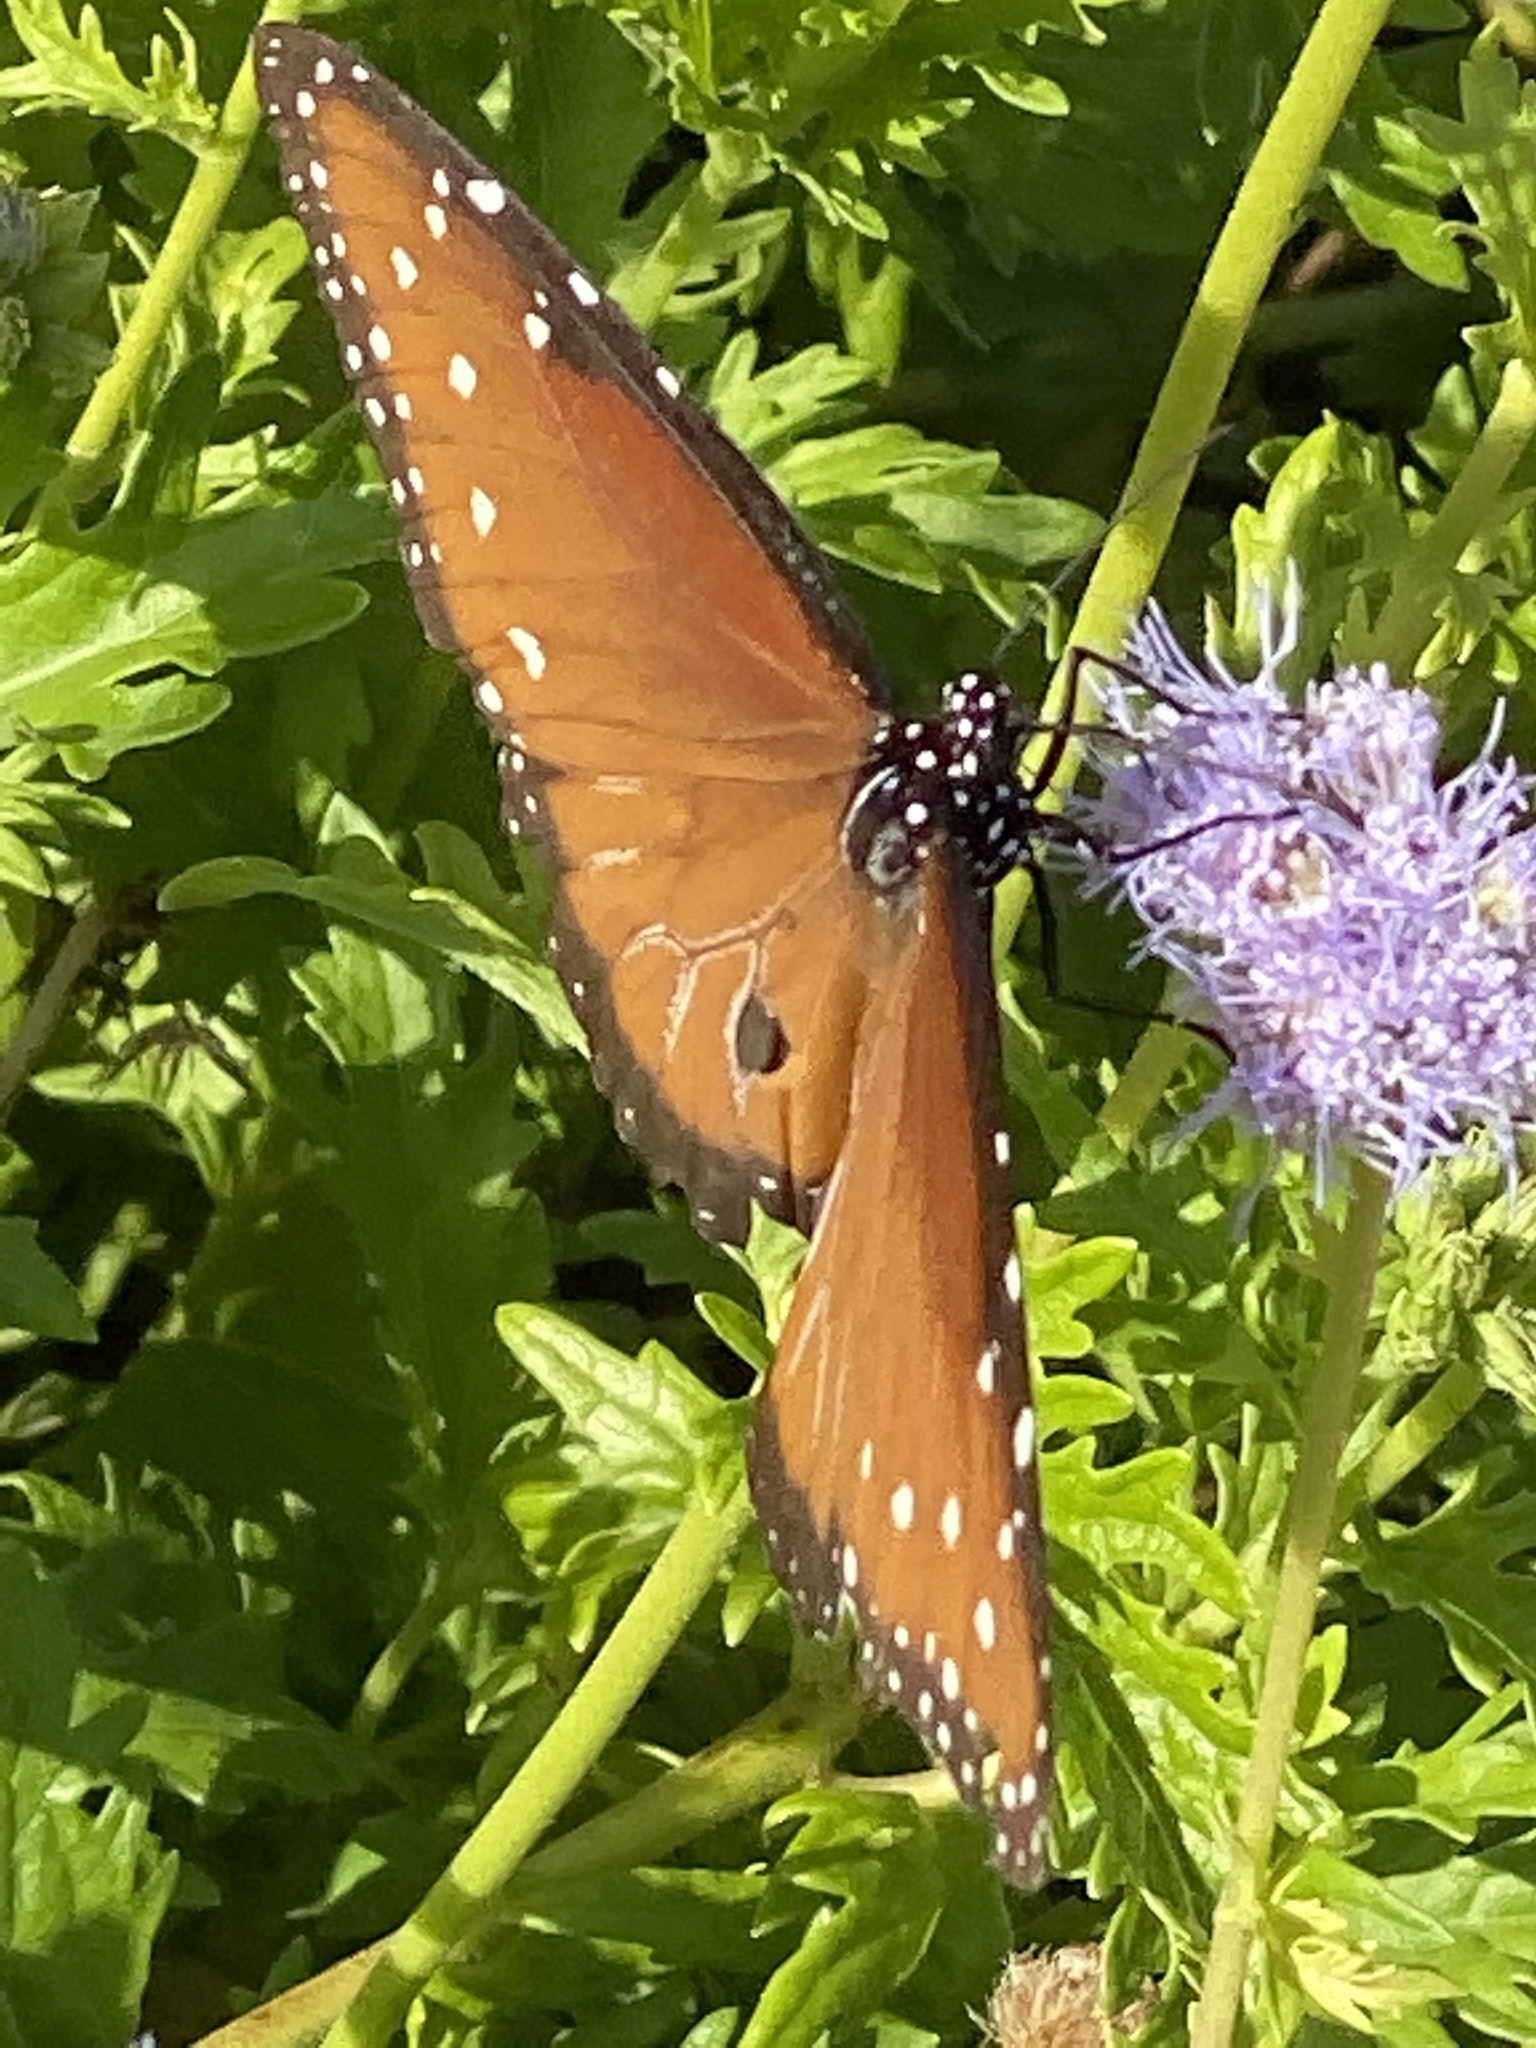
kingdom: Animalia
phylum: Arthropoda
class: Insecta
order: Lepidoptera
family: Nymphalidae
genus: Danaus
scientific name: Danaus gilippus
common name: Queen
